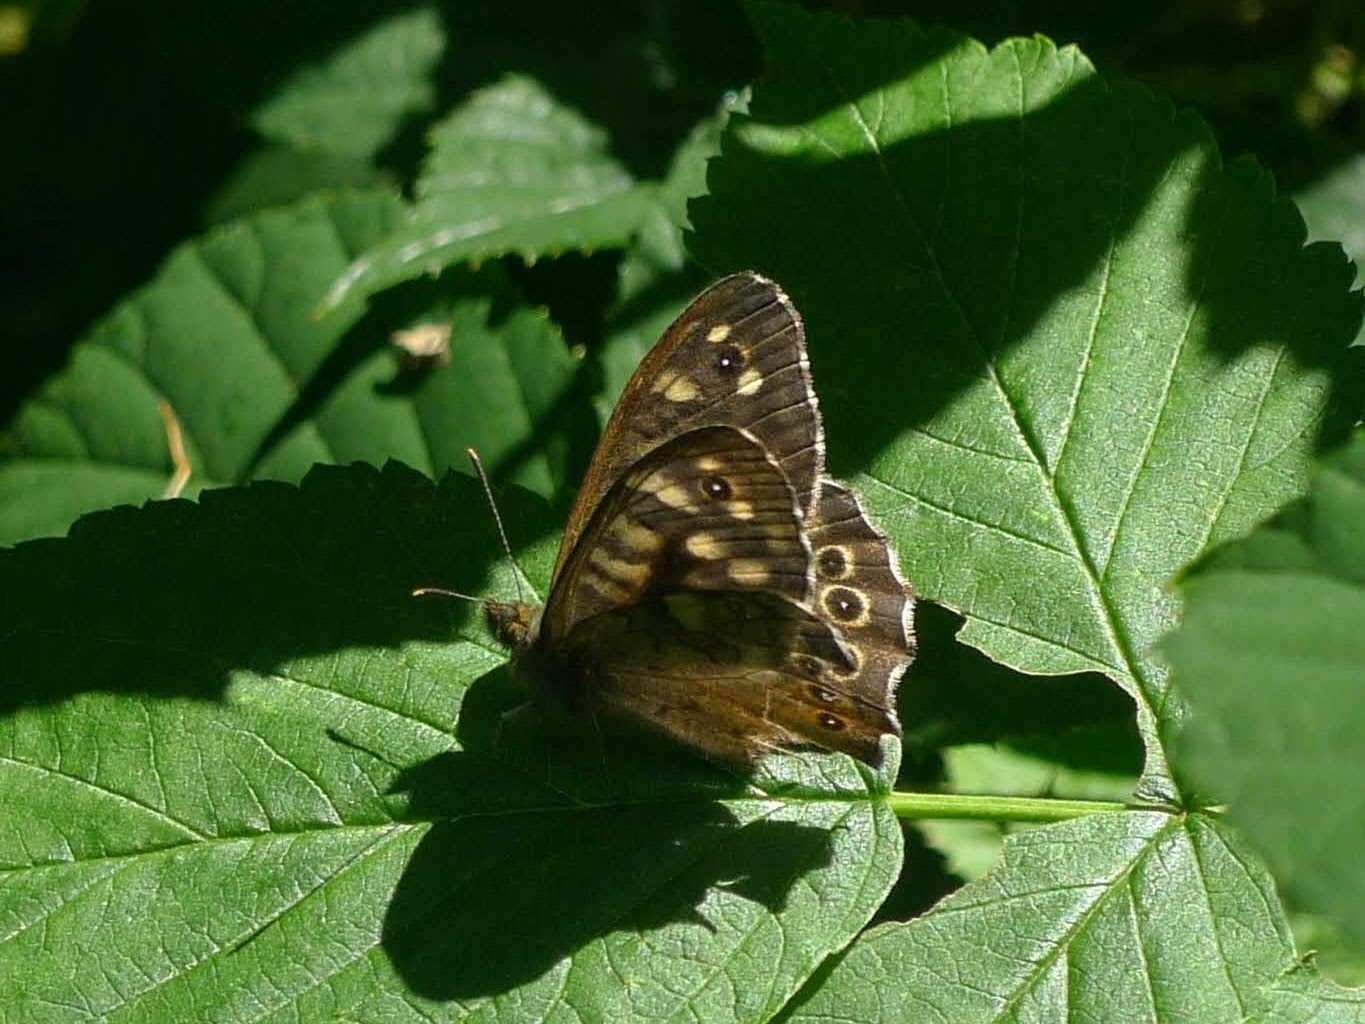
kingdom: Animalia
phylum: Arthropoda
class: Insecta
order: Lepidoptera
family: Nymphalidae
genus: Pararge
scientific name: Pararge aegeria
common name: Speckled wood
